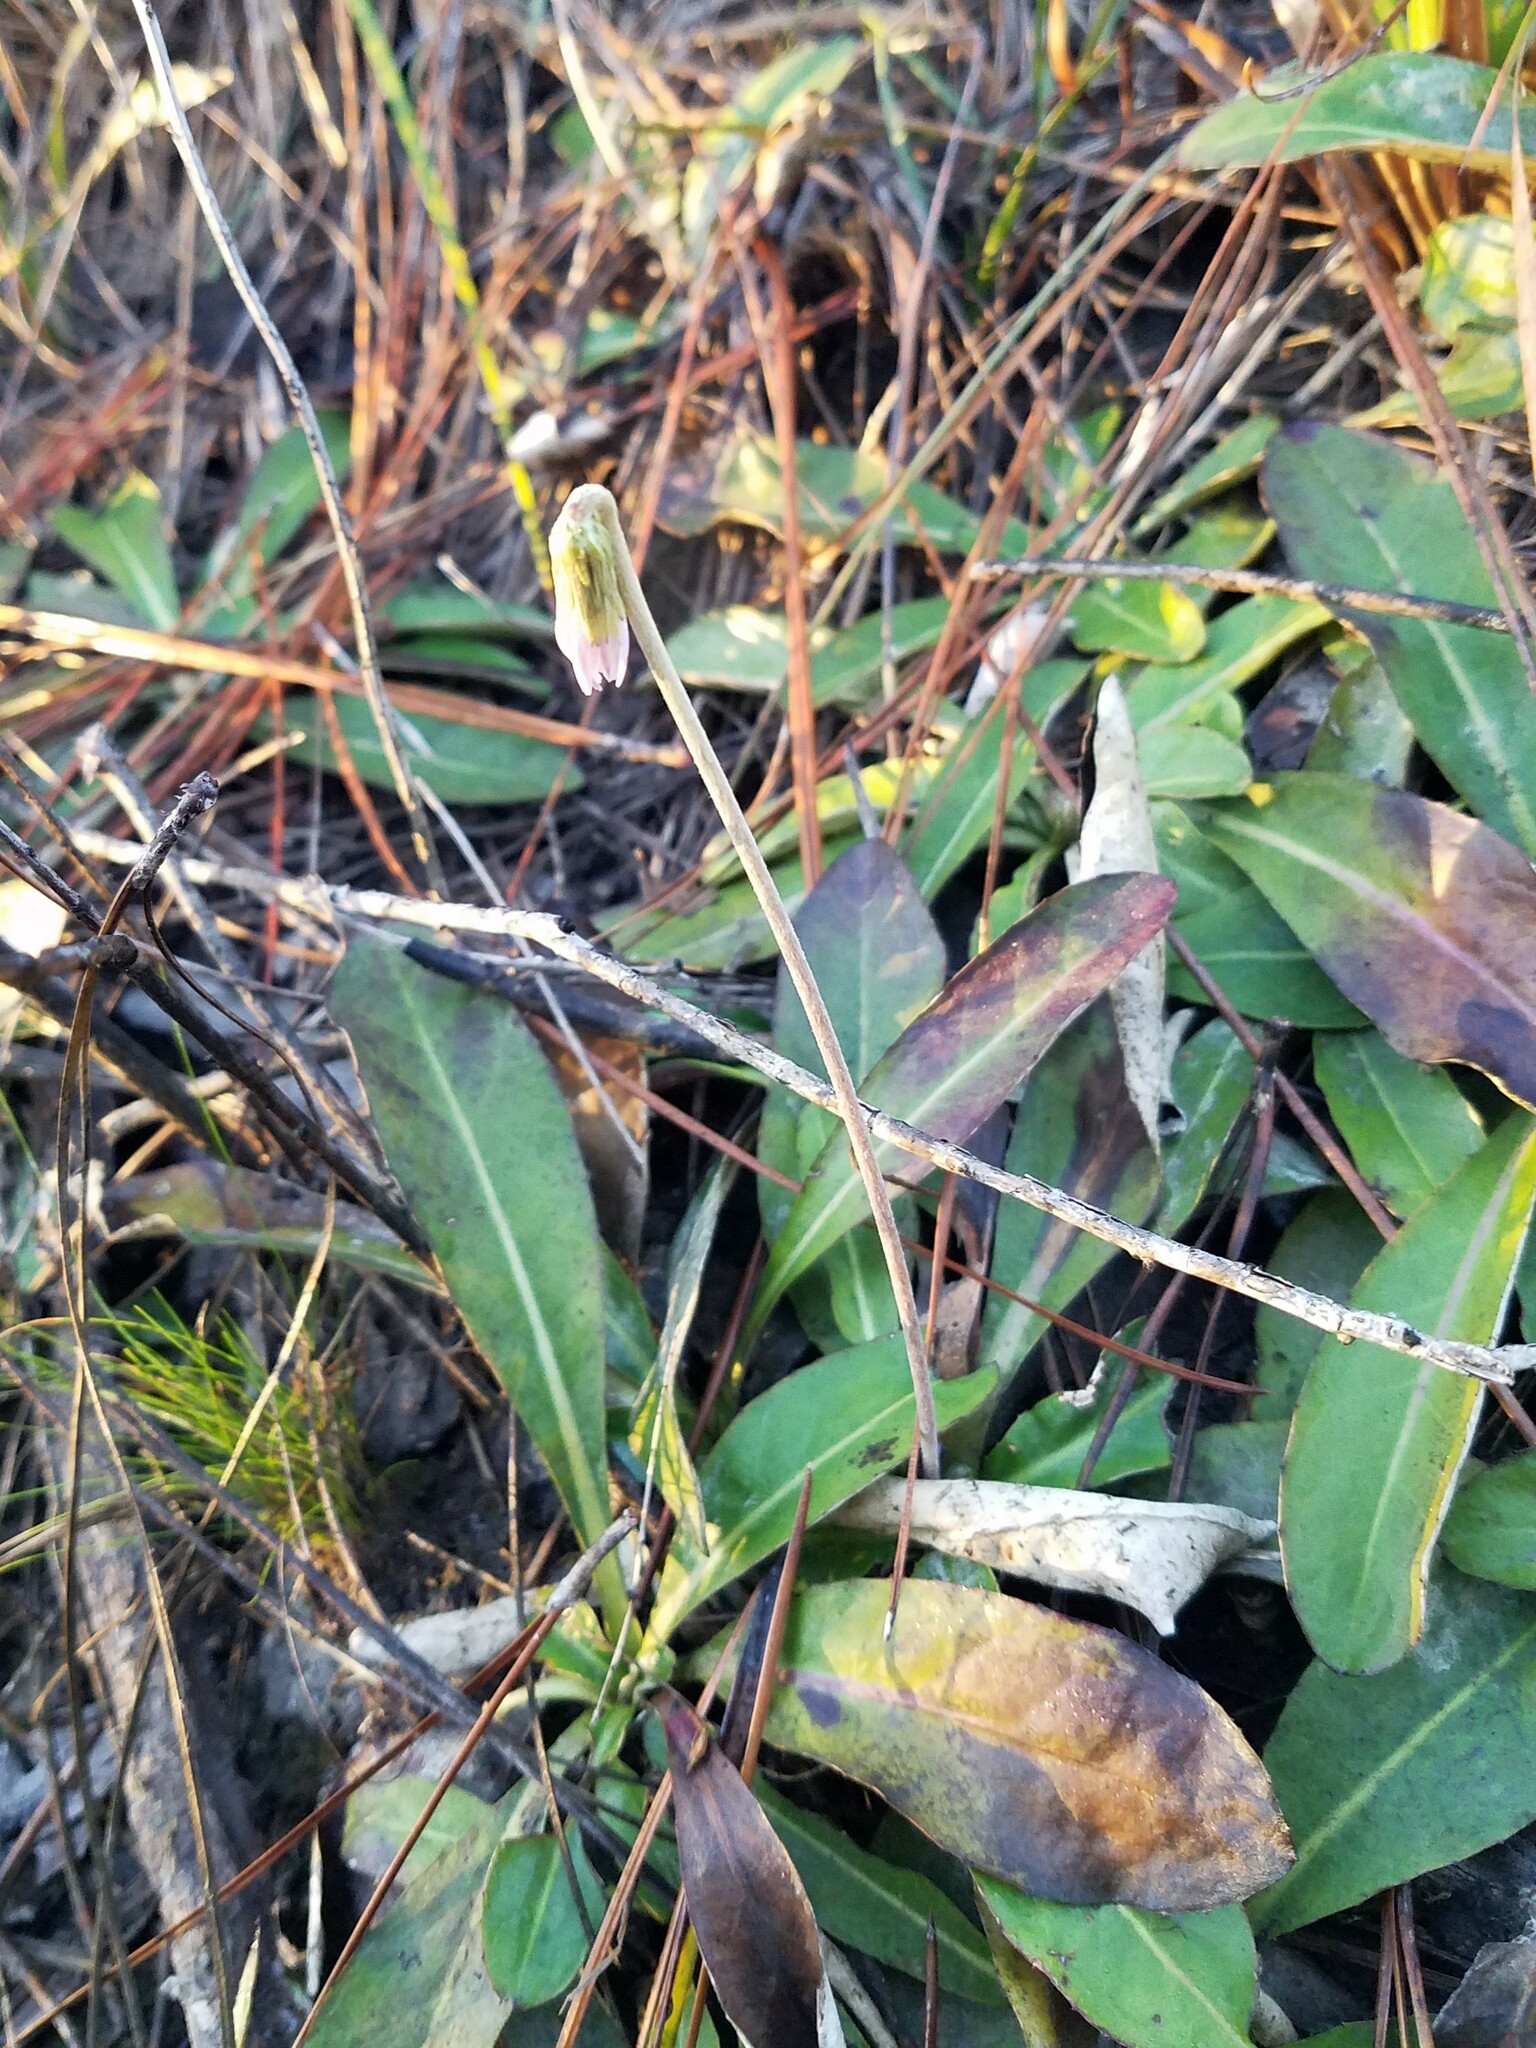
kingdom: Plantae
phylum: Tracheophyta
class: Magnoliopsida
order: Asterales
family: Asteraceae
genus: Chaptalia
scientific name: Chaptalia tomentosa
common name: Woolly sunbonnet
